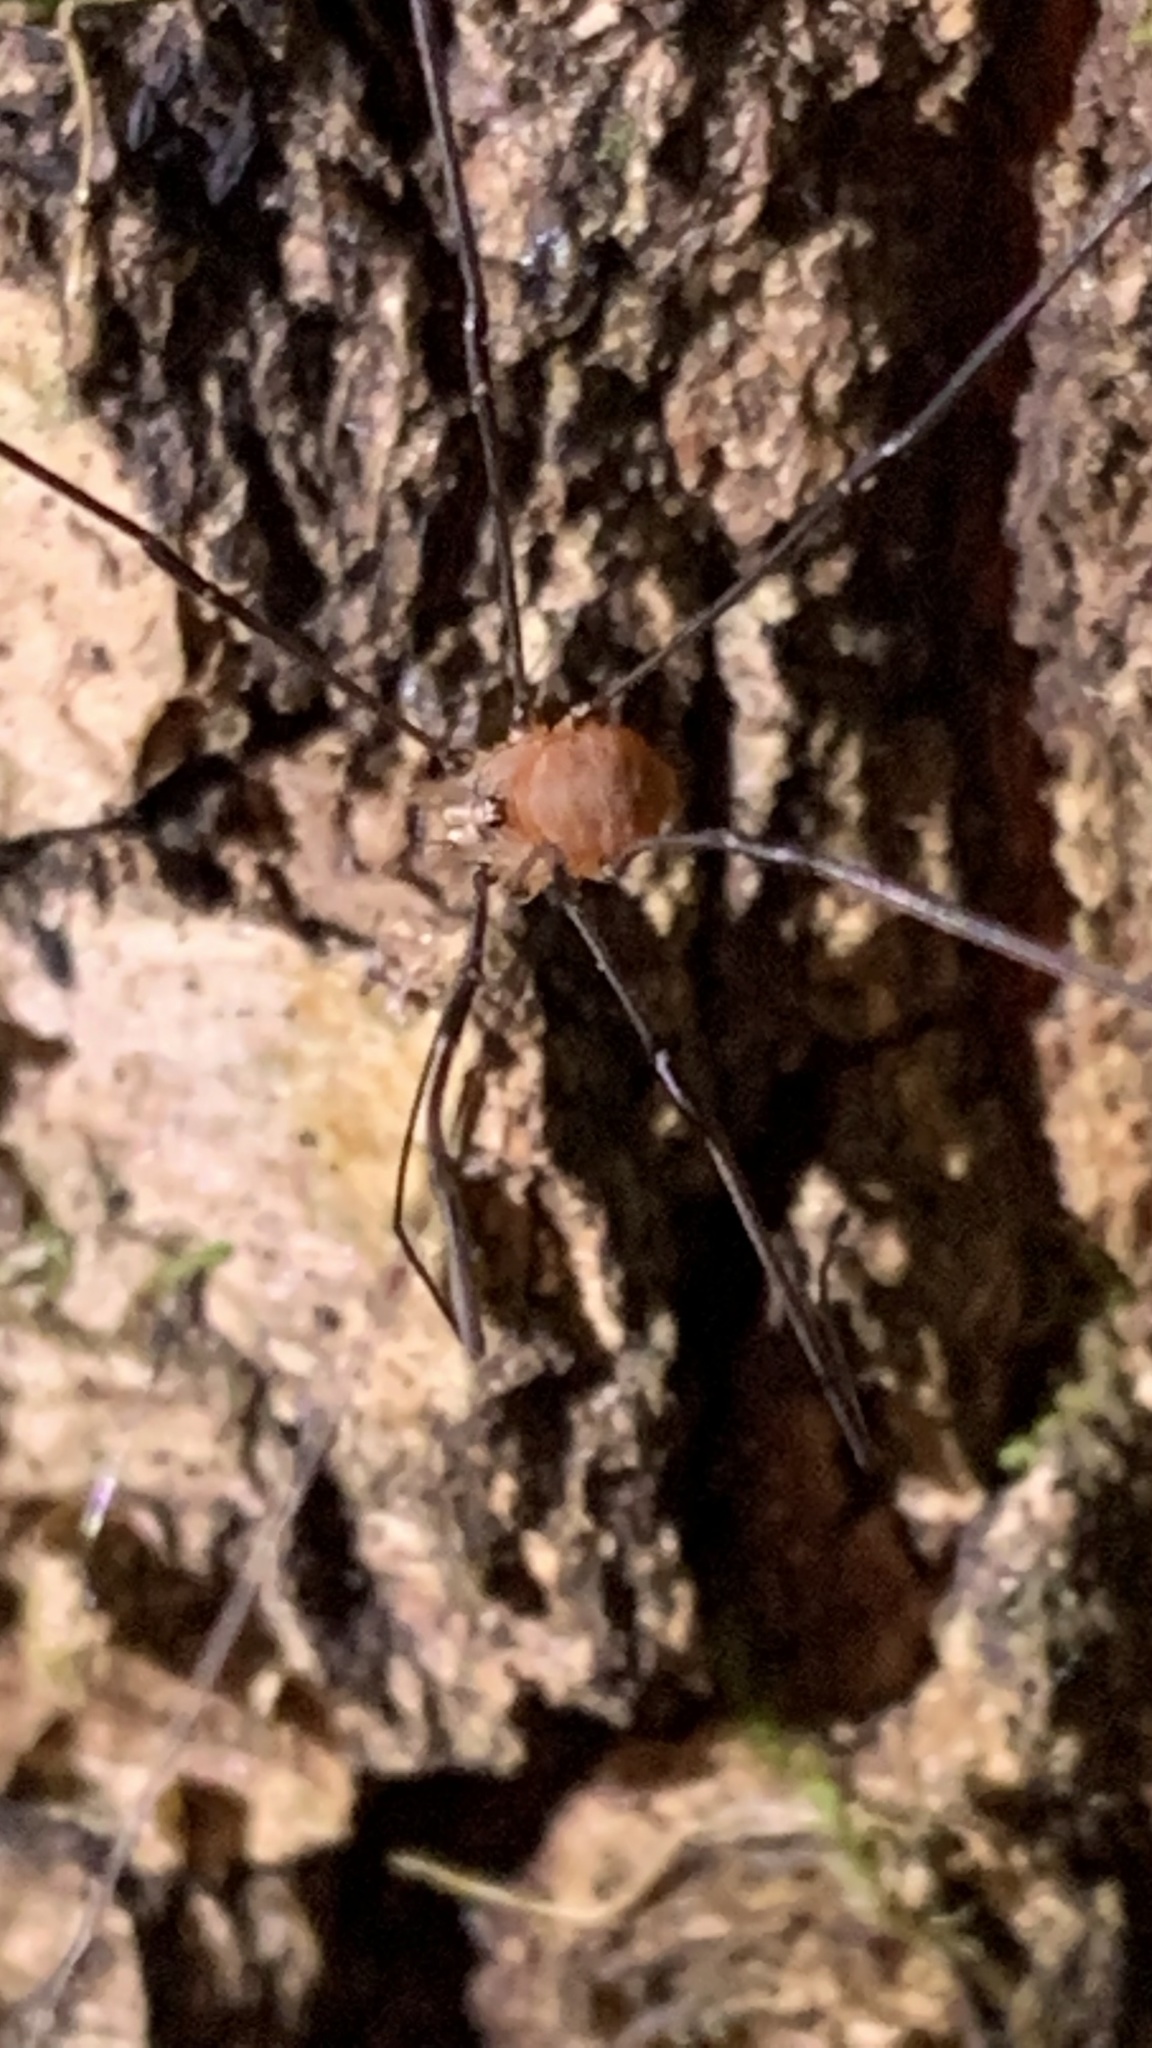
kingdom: Animalia
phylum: Arthropoda
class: Arachnida
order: Opiliones
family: Sclerosomatidae
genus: Leiobunum
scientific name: Leiobunum blackwalli
